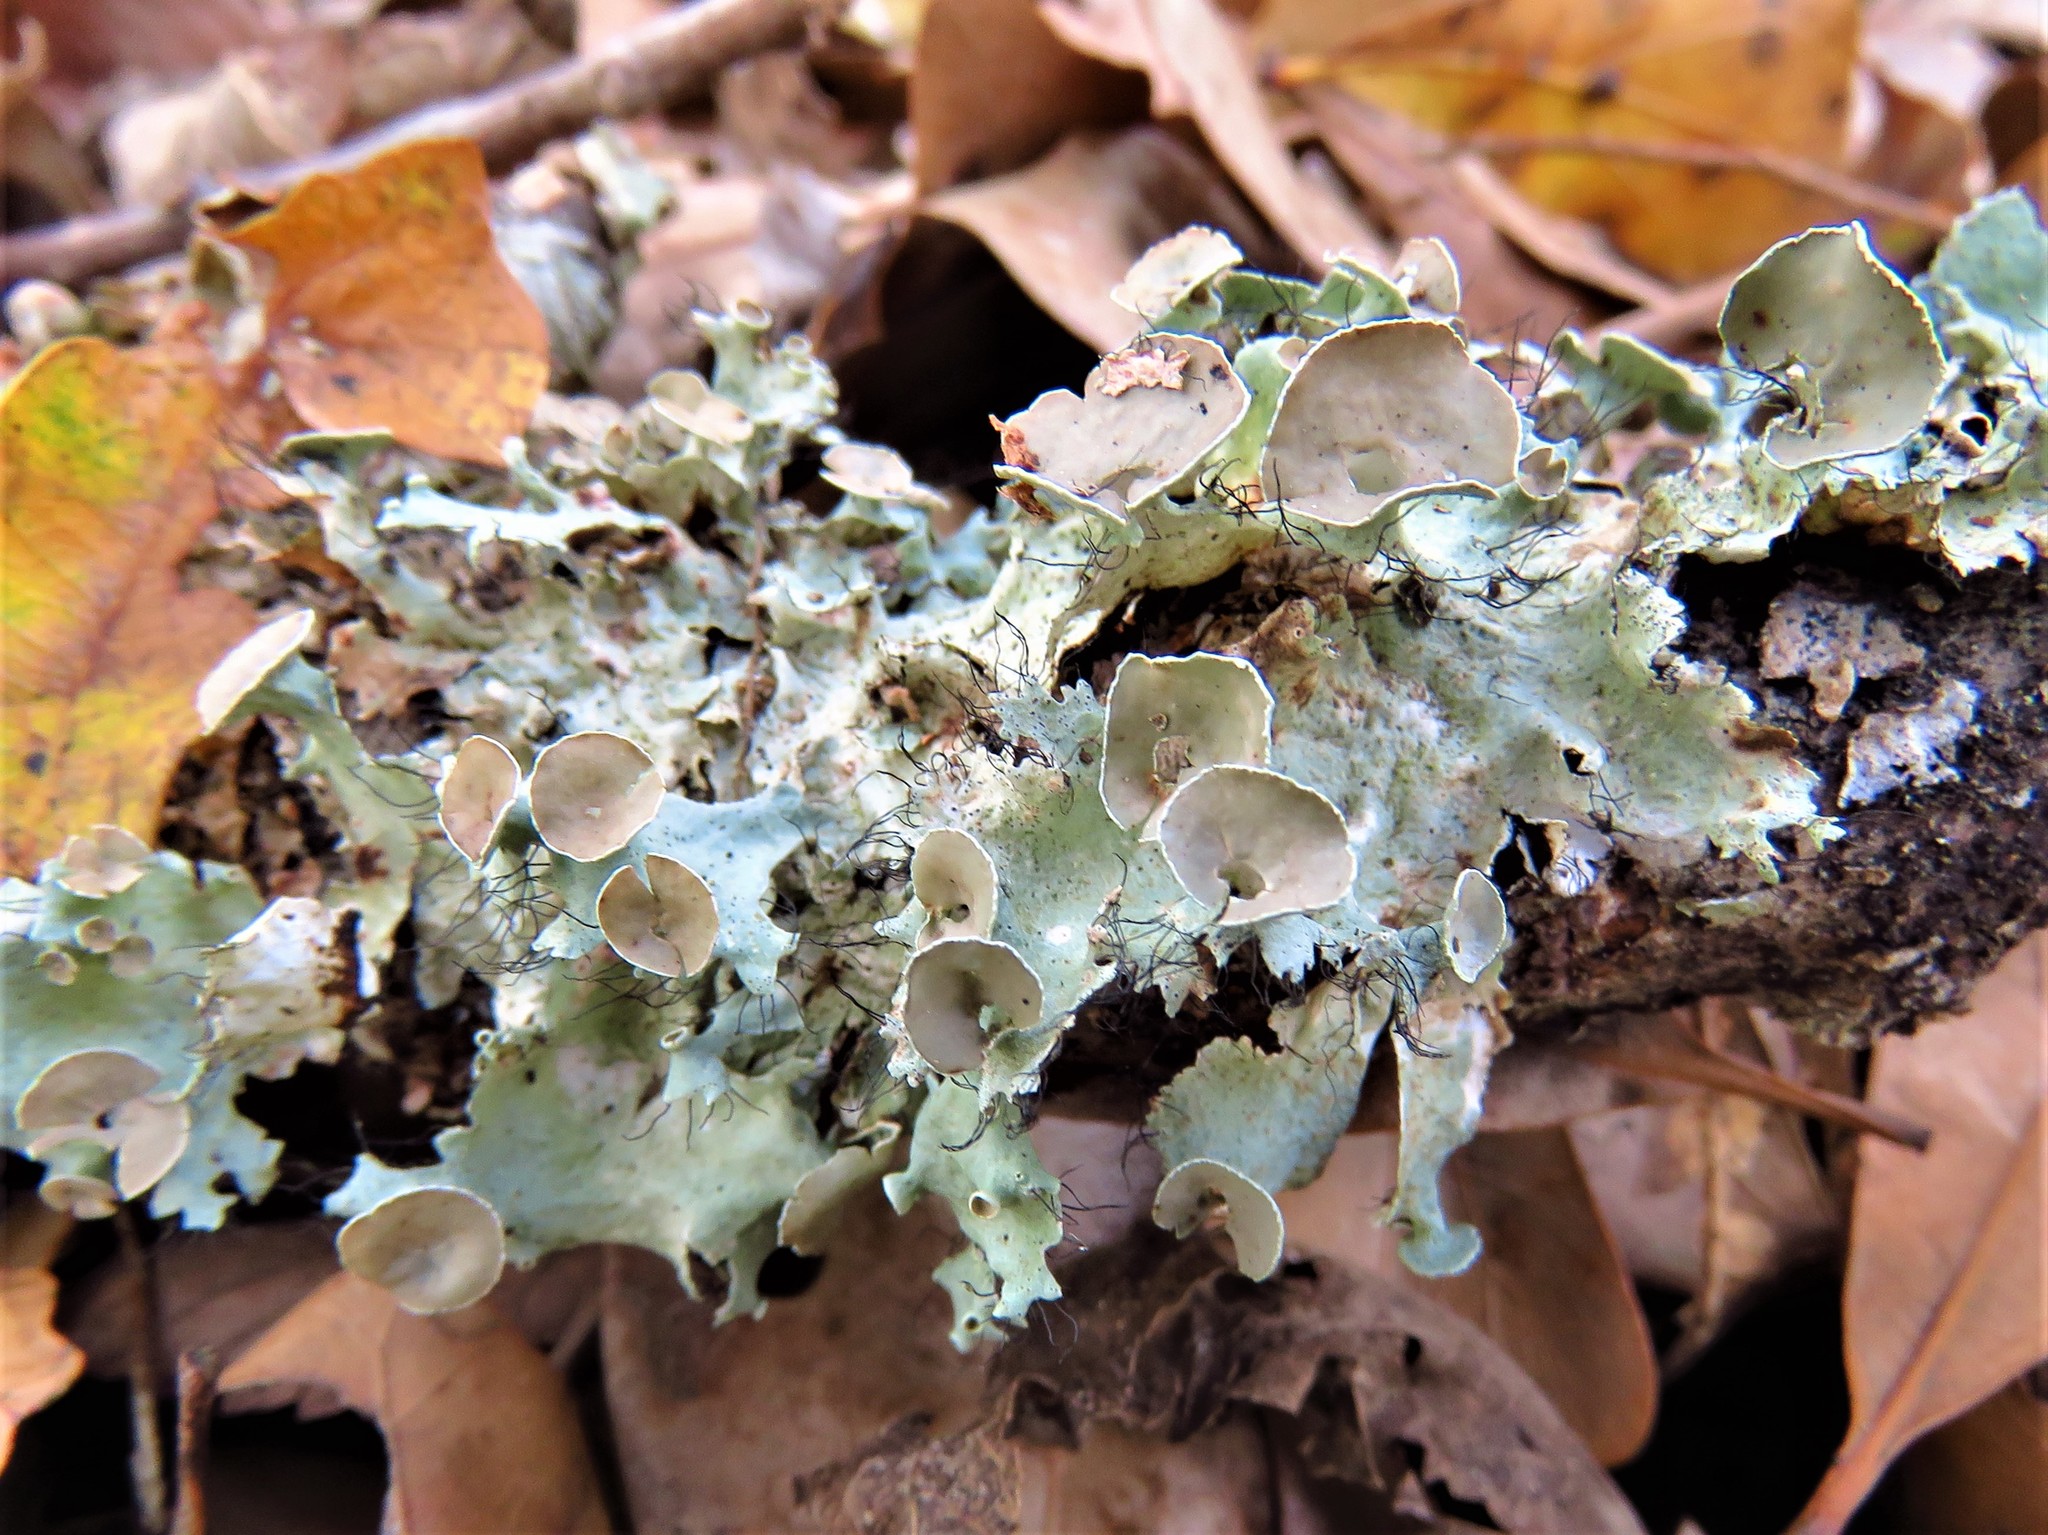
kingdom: Fungi
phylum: Ascomycota
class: Lecanoromycetes
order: Lecanorales
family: Parmeliaceae
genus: Parmotrema
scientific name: Parmotrema perforatum
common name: Perforated ruffle lichen
